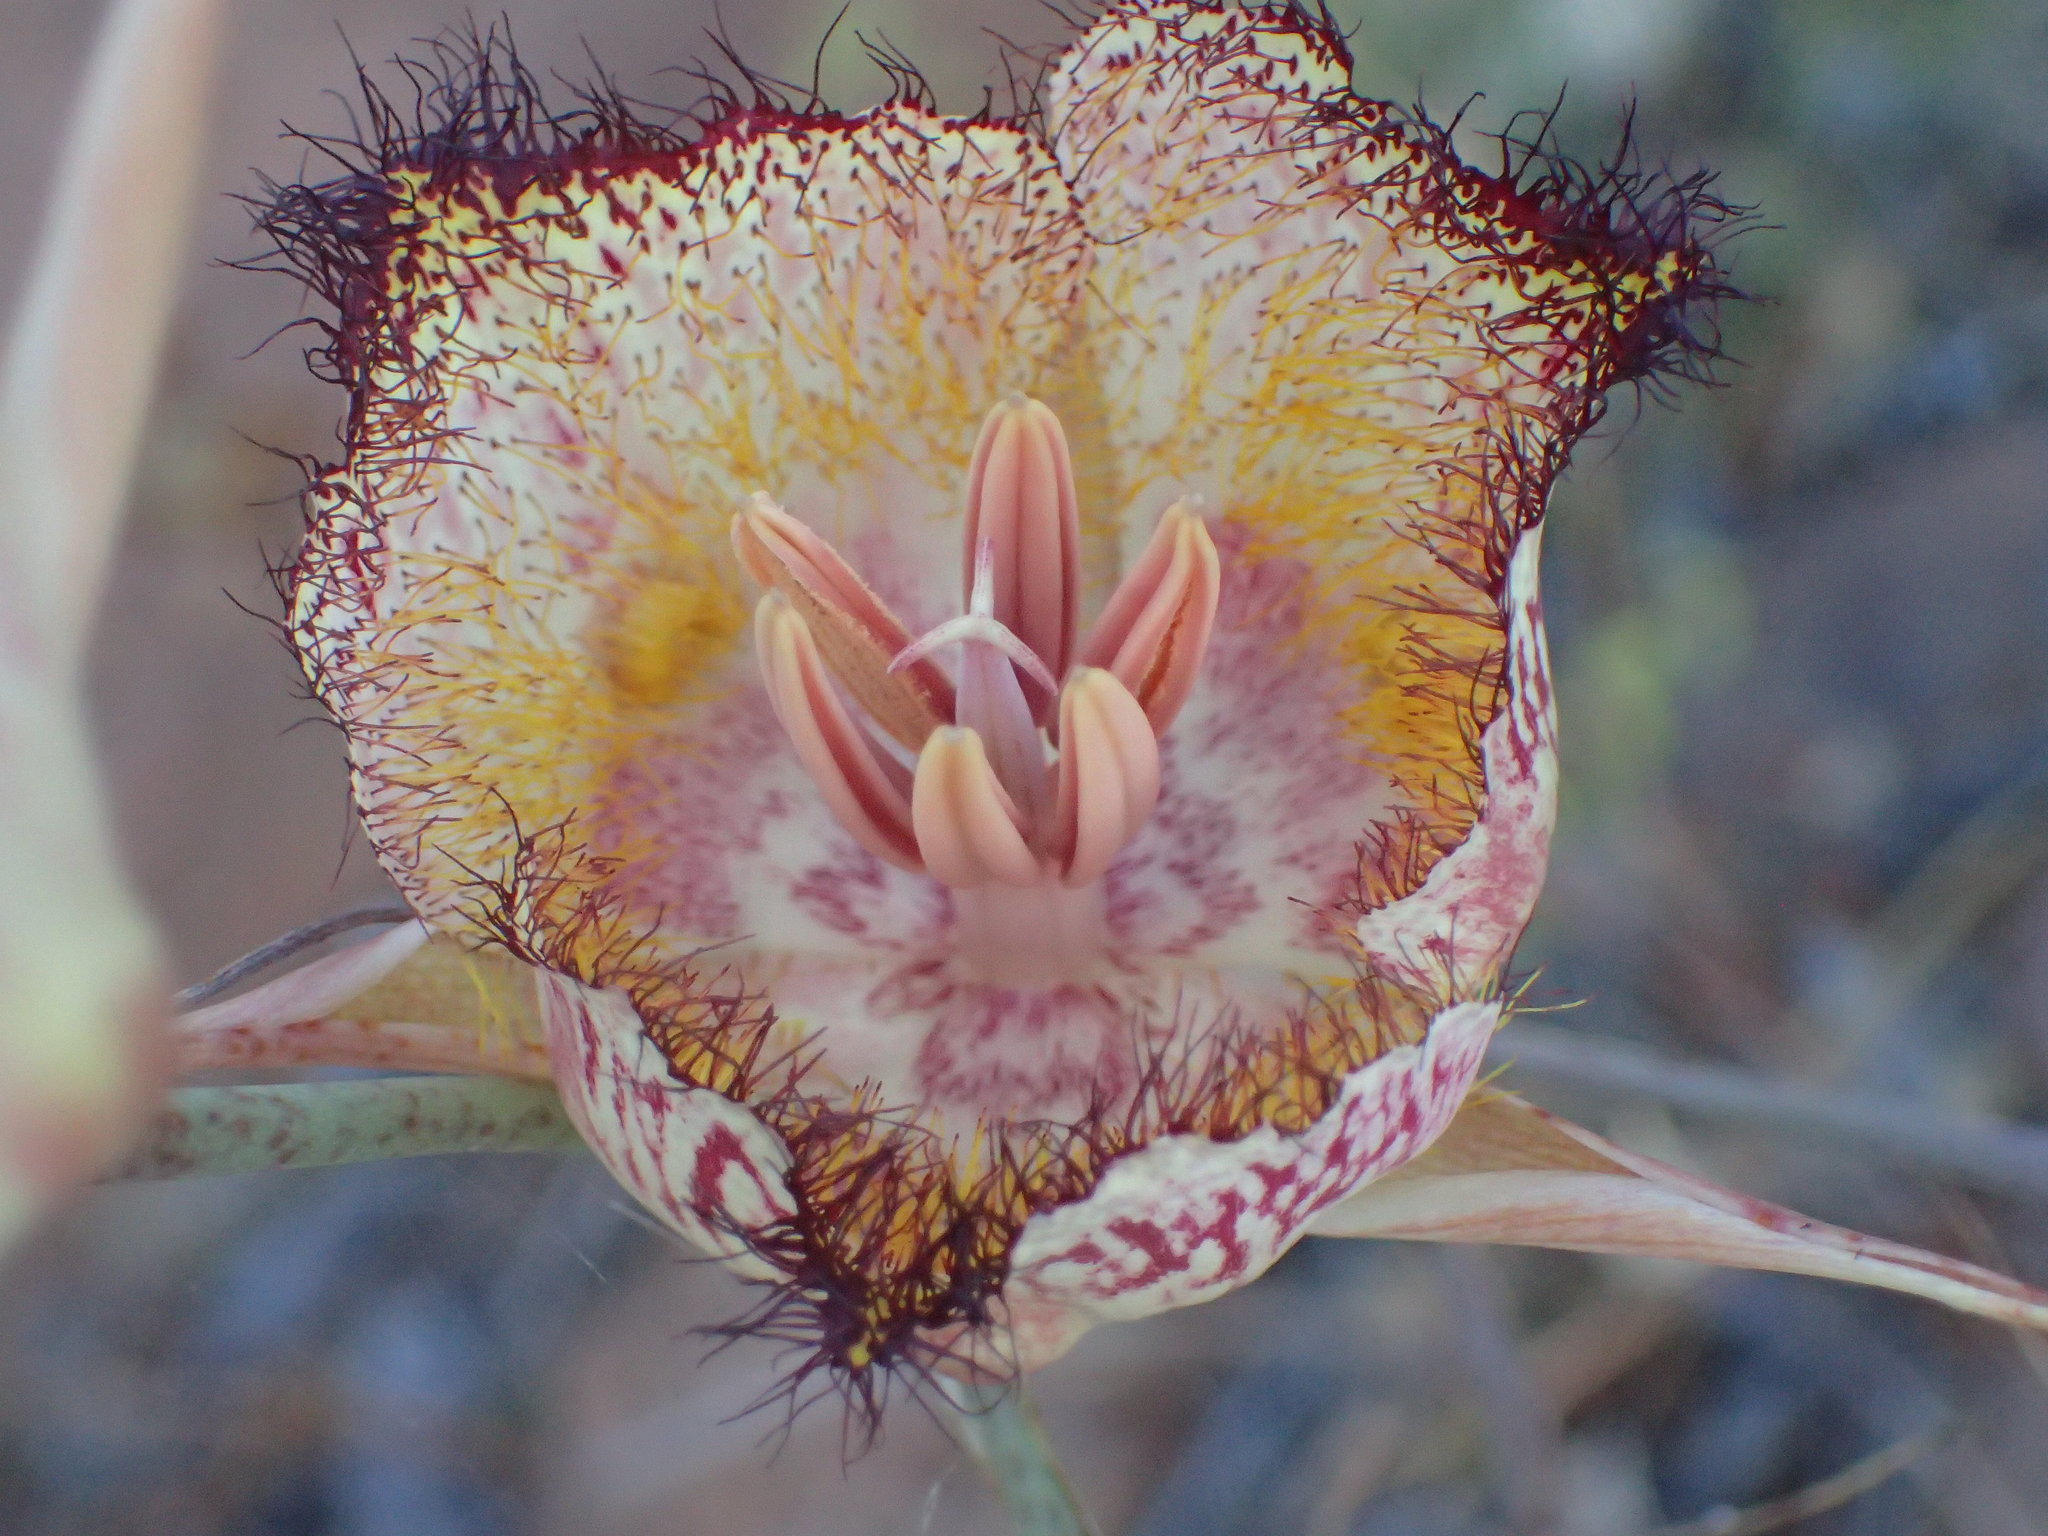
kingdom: Plantae
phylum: Tracheophyta
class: Liliopsida
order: Liliales
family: Liliaceae
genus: Calochortus
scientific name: Calochortus fimbriatus
